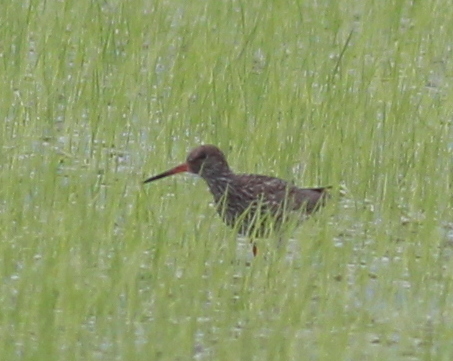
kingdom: Animalia
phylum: Chordata
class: Aves
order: Charadriiformes
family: Scolopacidae
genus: Tringa
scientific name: Tringa totanus
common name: Common redshank
